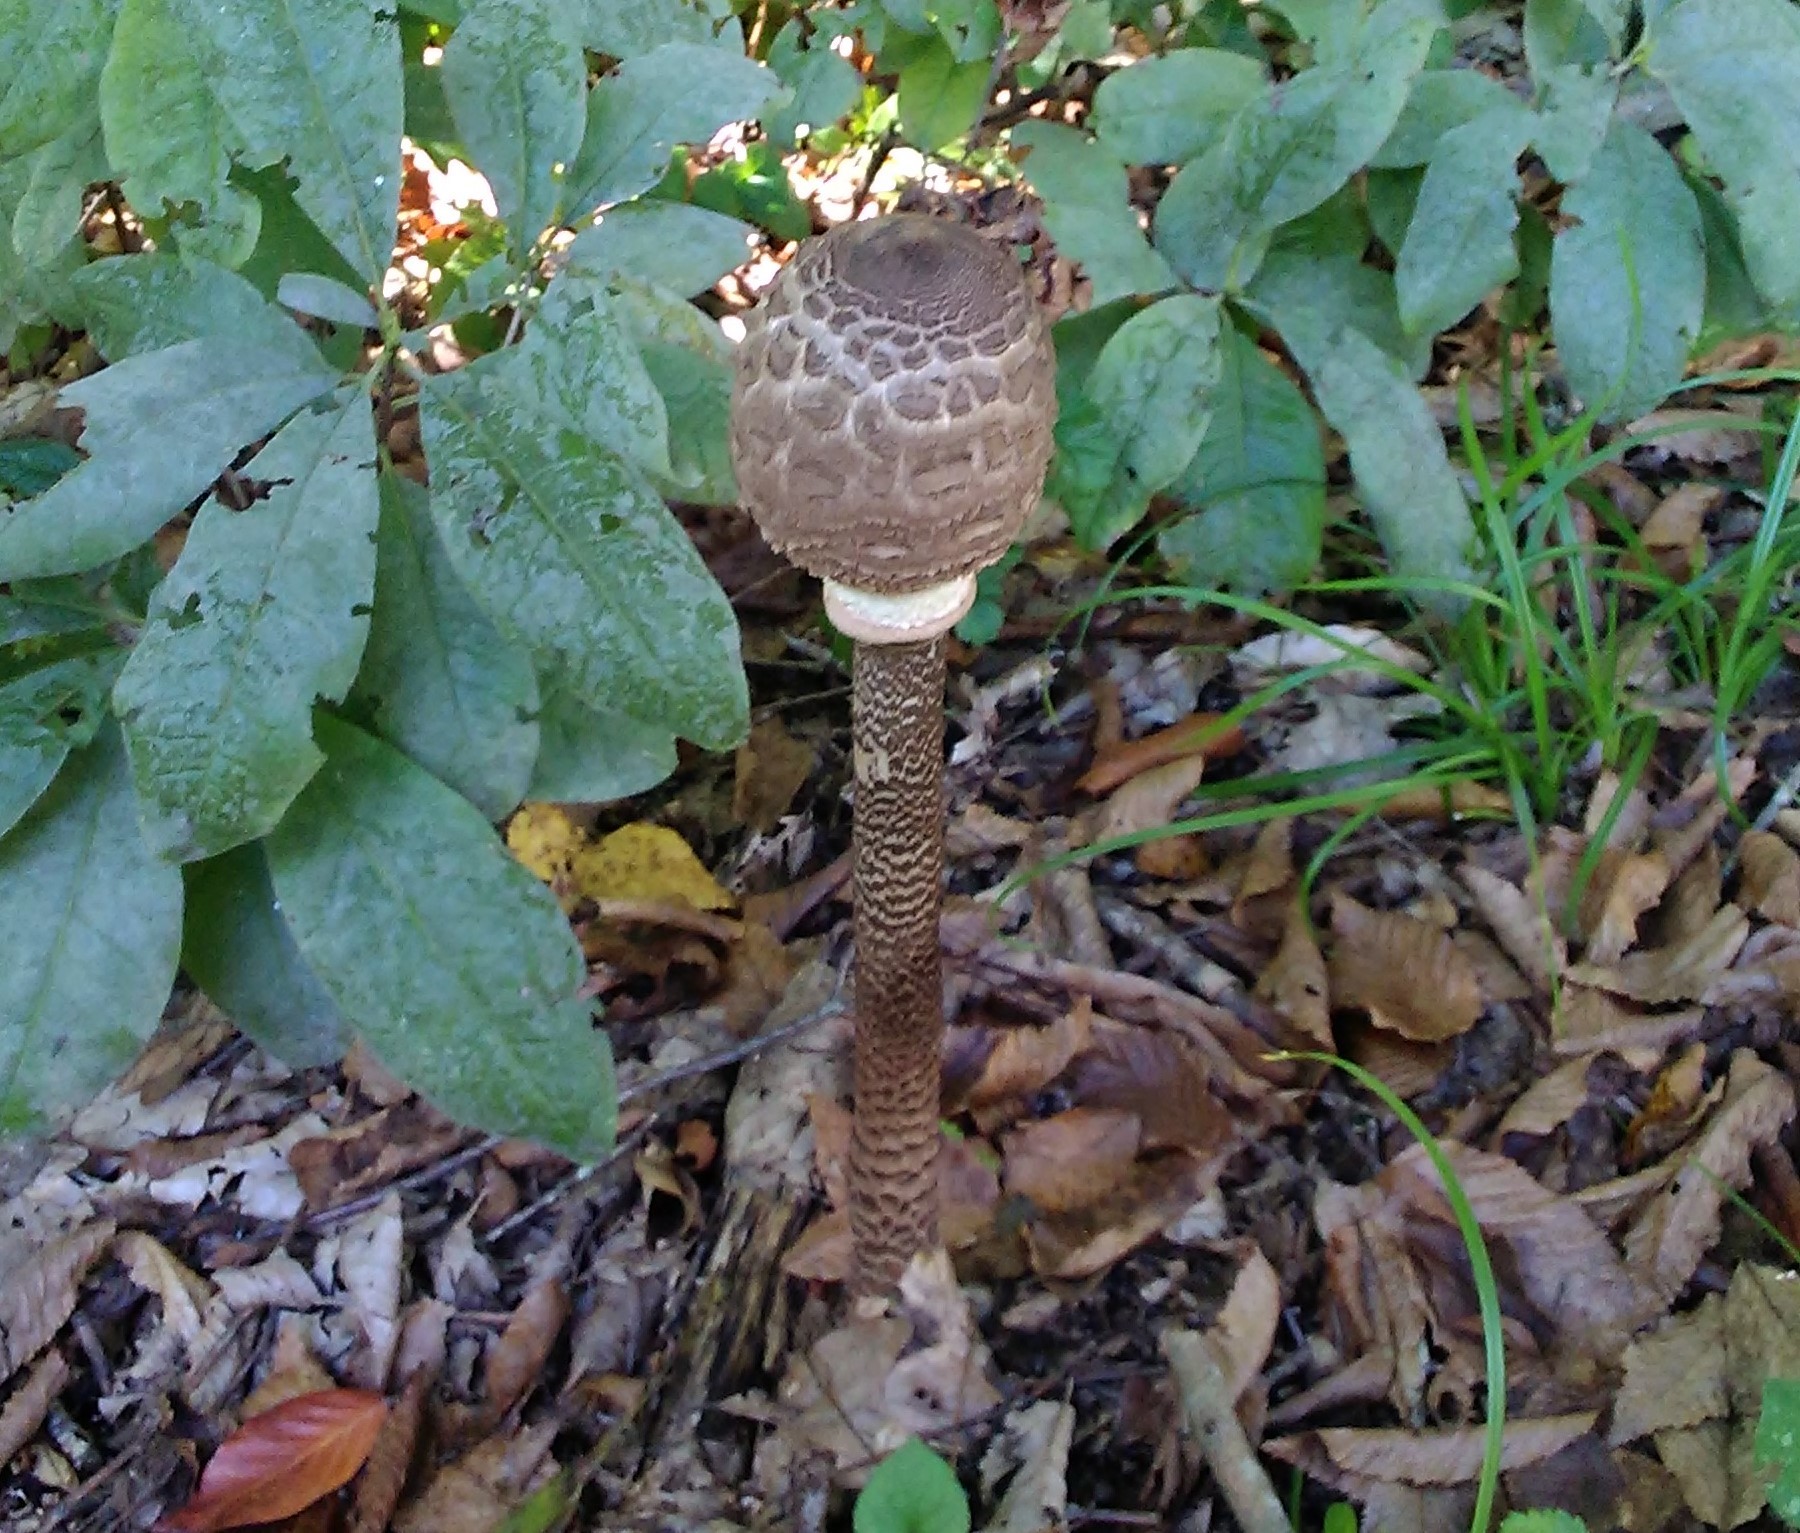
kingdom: Fungi
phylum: Basidiomycota
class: Agaricomycetes
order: Agaricales
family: Agaricaceae
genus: Macrolepiota
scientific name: Macrolepiota procera
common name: Parasol
